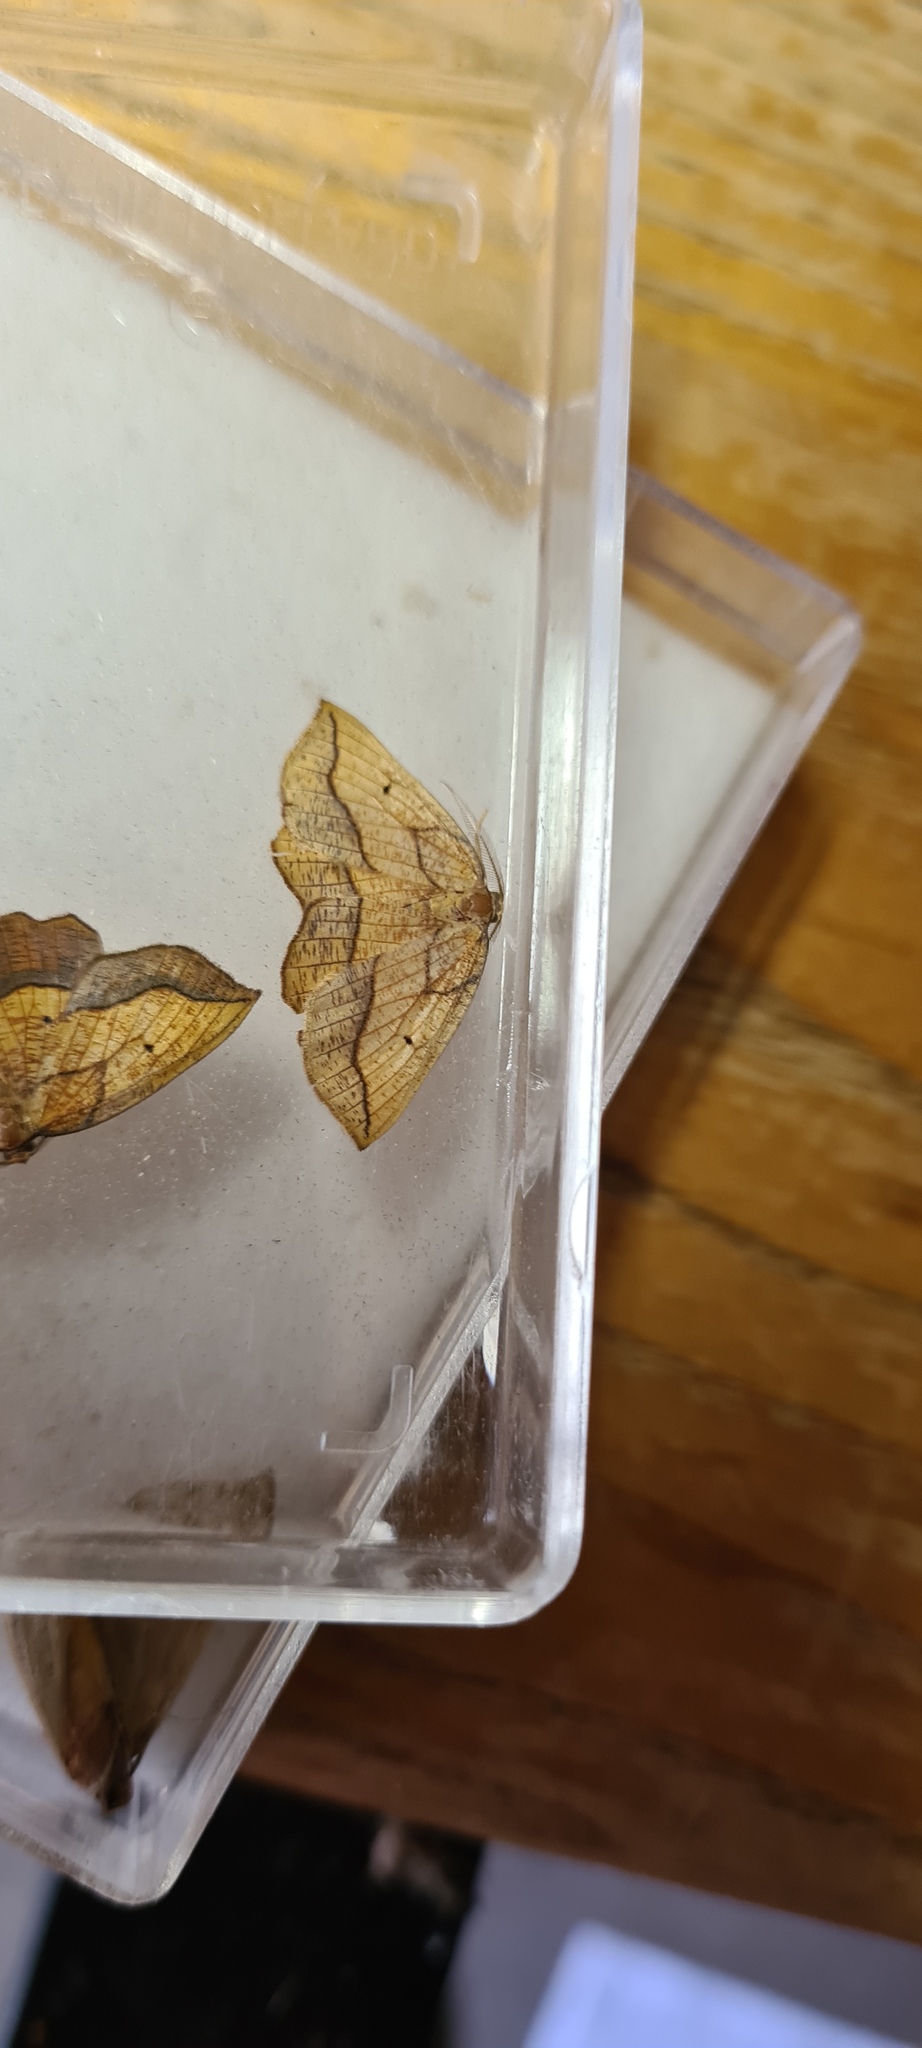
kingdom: Animalia
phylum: Arthropoda
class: Insecta
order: Lepidoptera
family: Geometridae
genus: Epione
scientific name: Epione repandaria
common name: Bordered beauty
